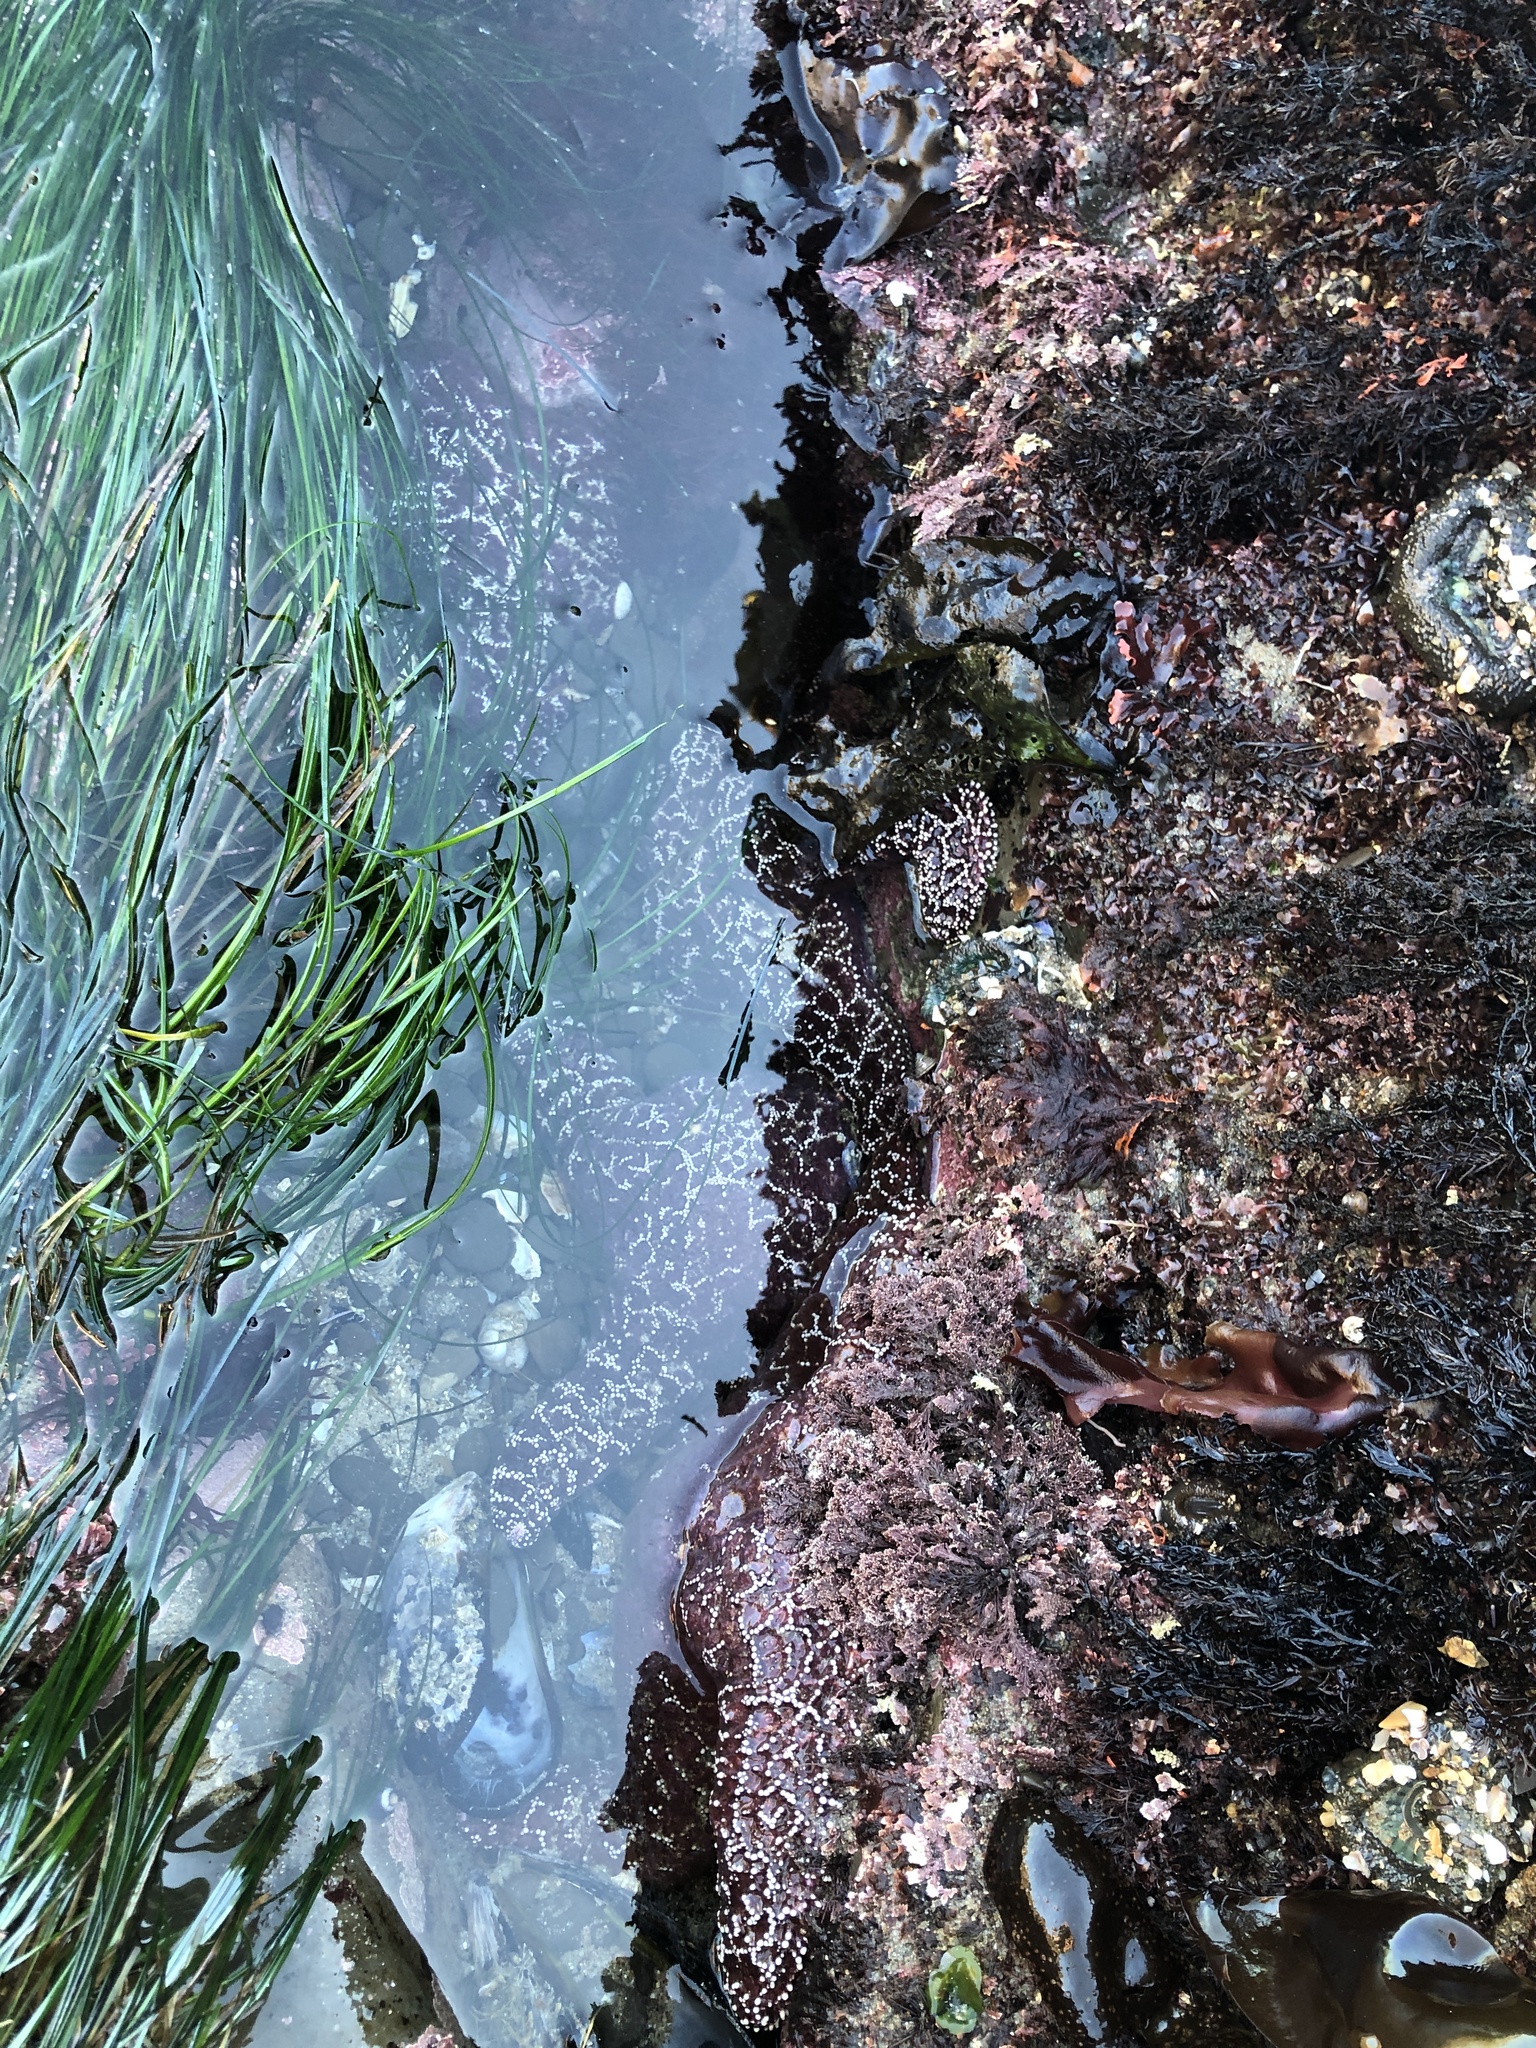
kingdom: Animalia
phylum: Echinodermata
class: Asteroidea
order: Forcipulatida
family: Asteriidae
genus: Pisaster
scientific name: Pisaster ochraceus
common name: Ochre stars
